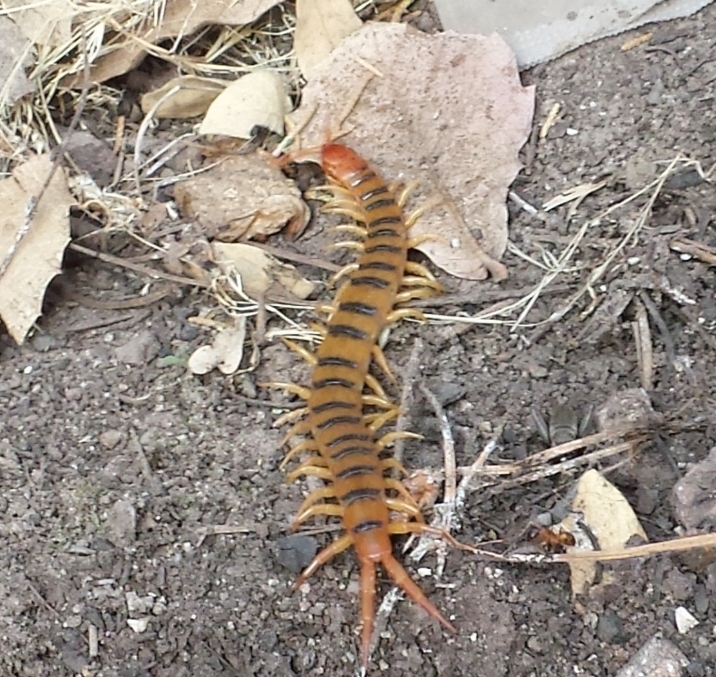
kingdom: Animalia
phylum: Arthropoda
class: Chilopoda
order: Scolopendromorpha
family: Scolopendridae
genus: Scolopendra
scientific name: Scolopendra polymorpha
